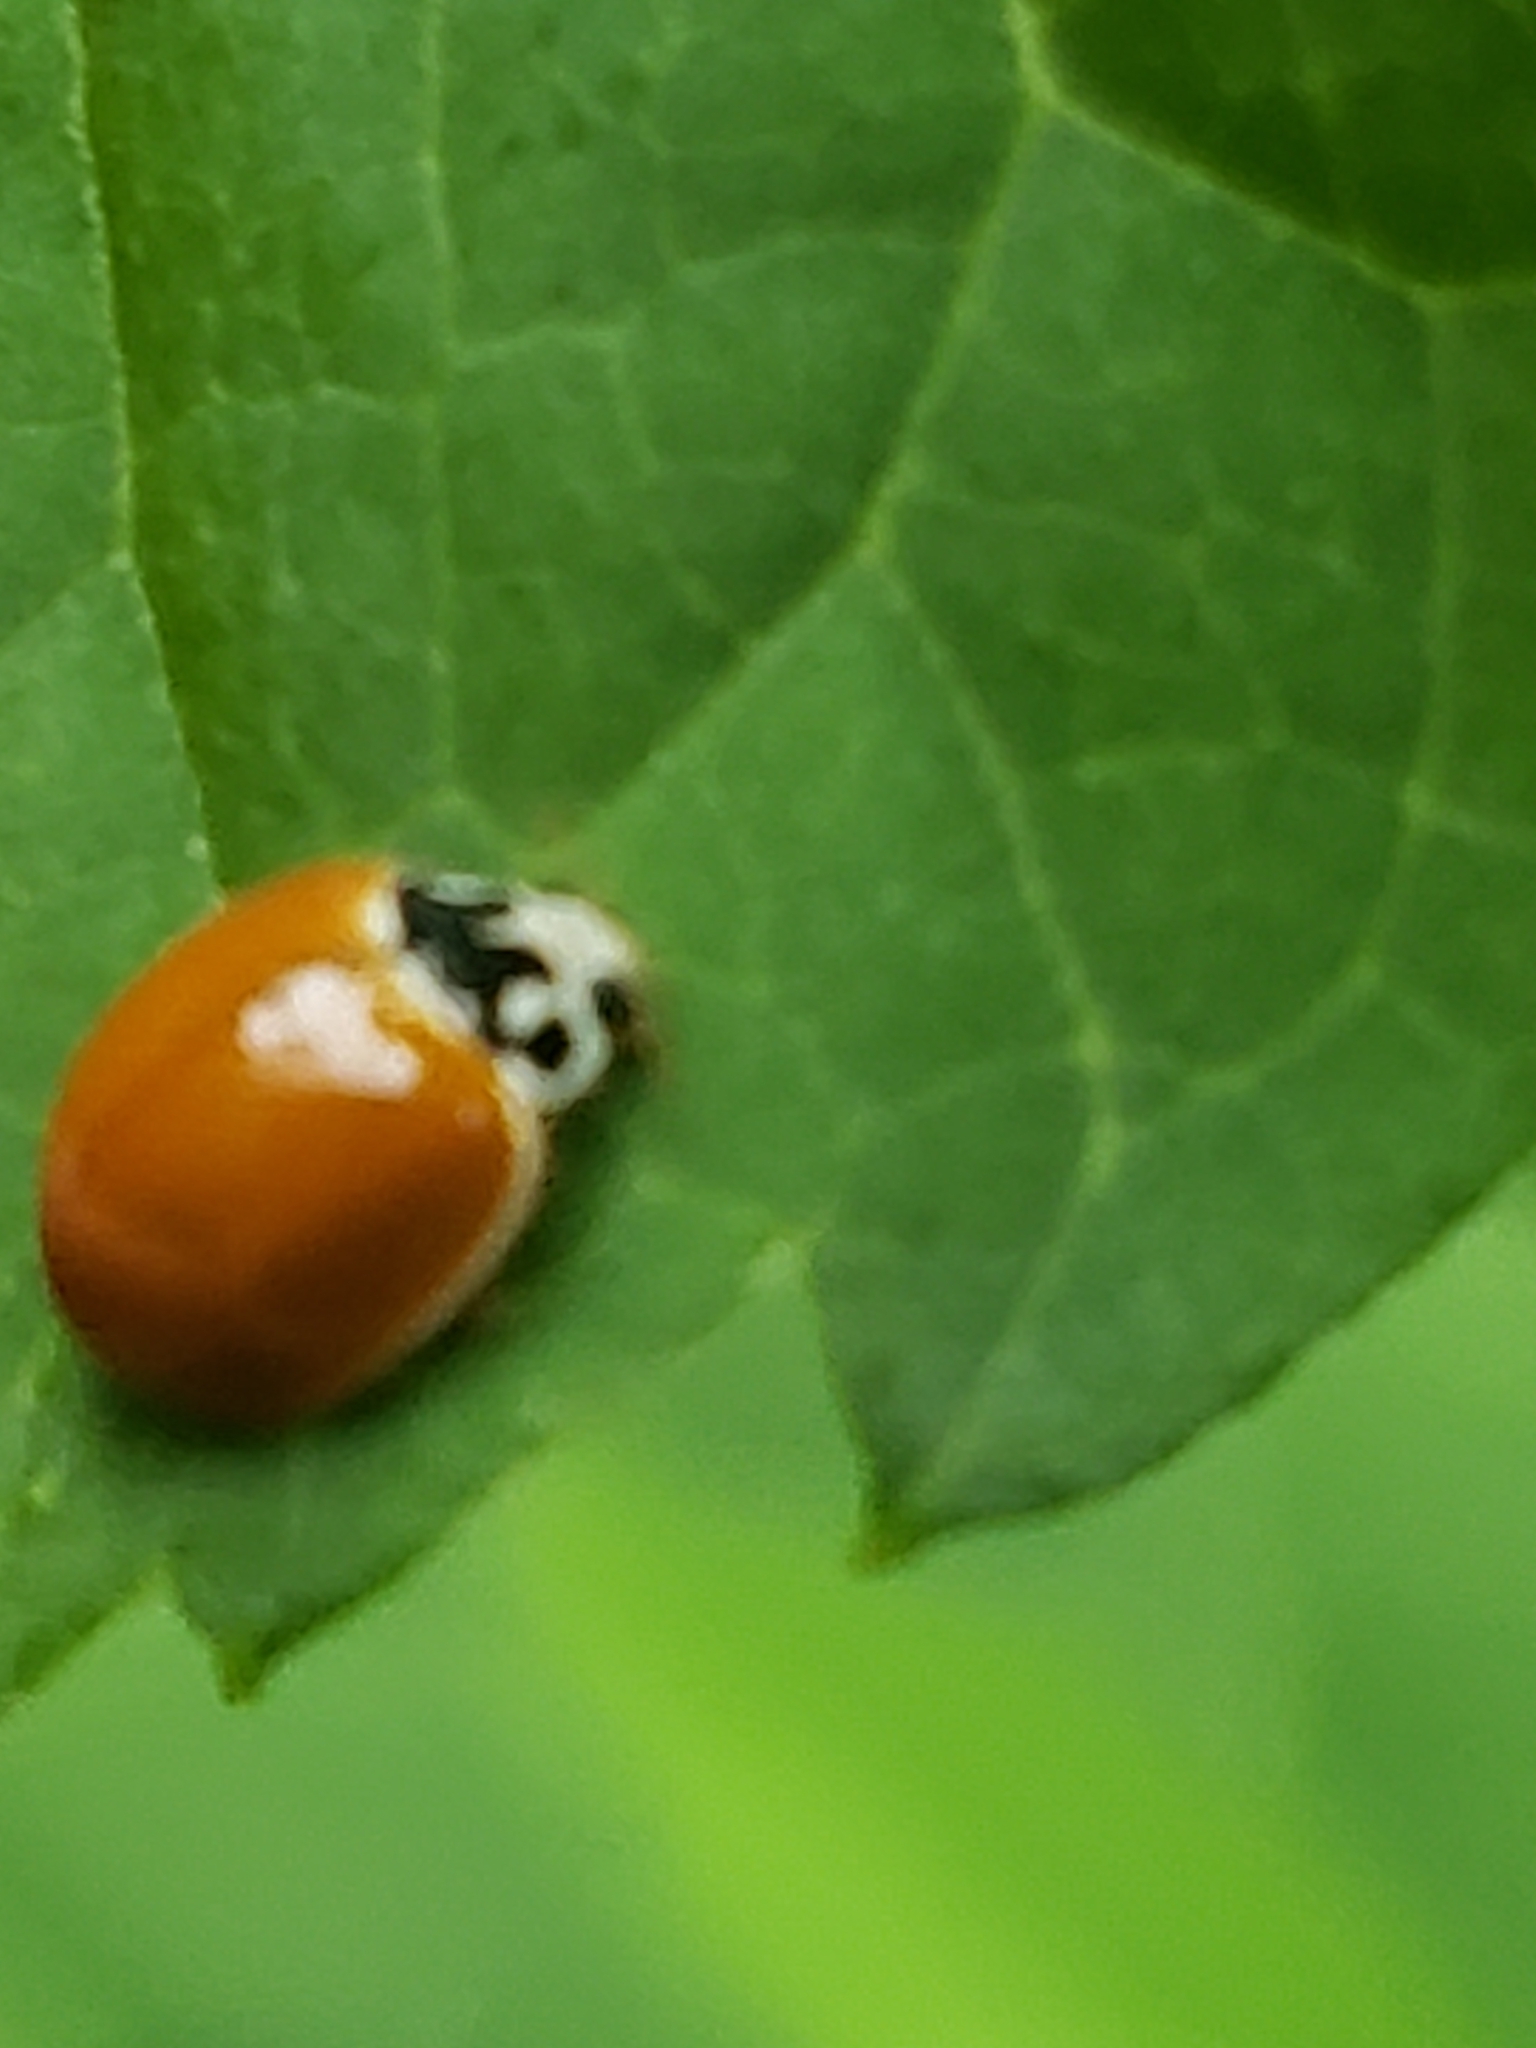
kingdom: Animalia
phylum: Arthropoda
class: Insecta
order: Coleoptera
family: Coccinellidae
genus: Cycloneda
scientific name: Cycloneda munda
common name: Polished lady beetle
